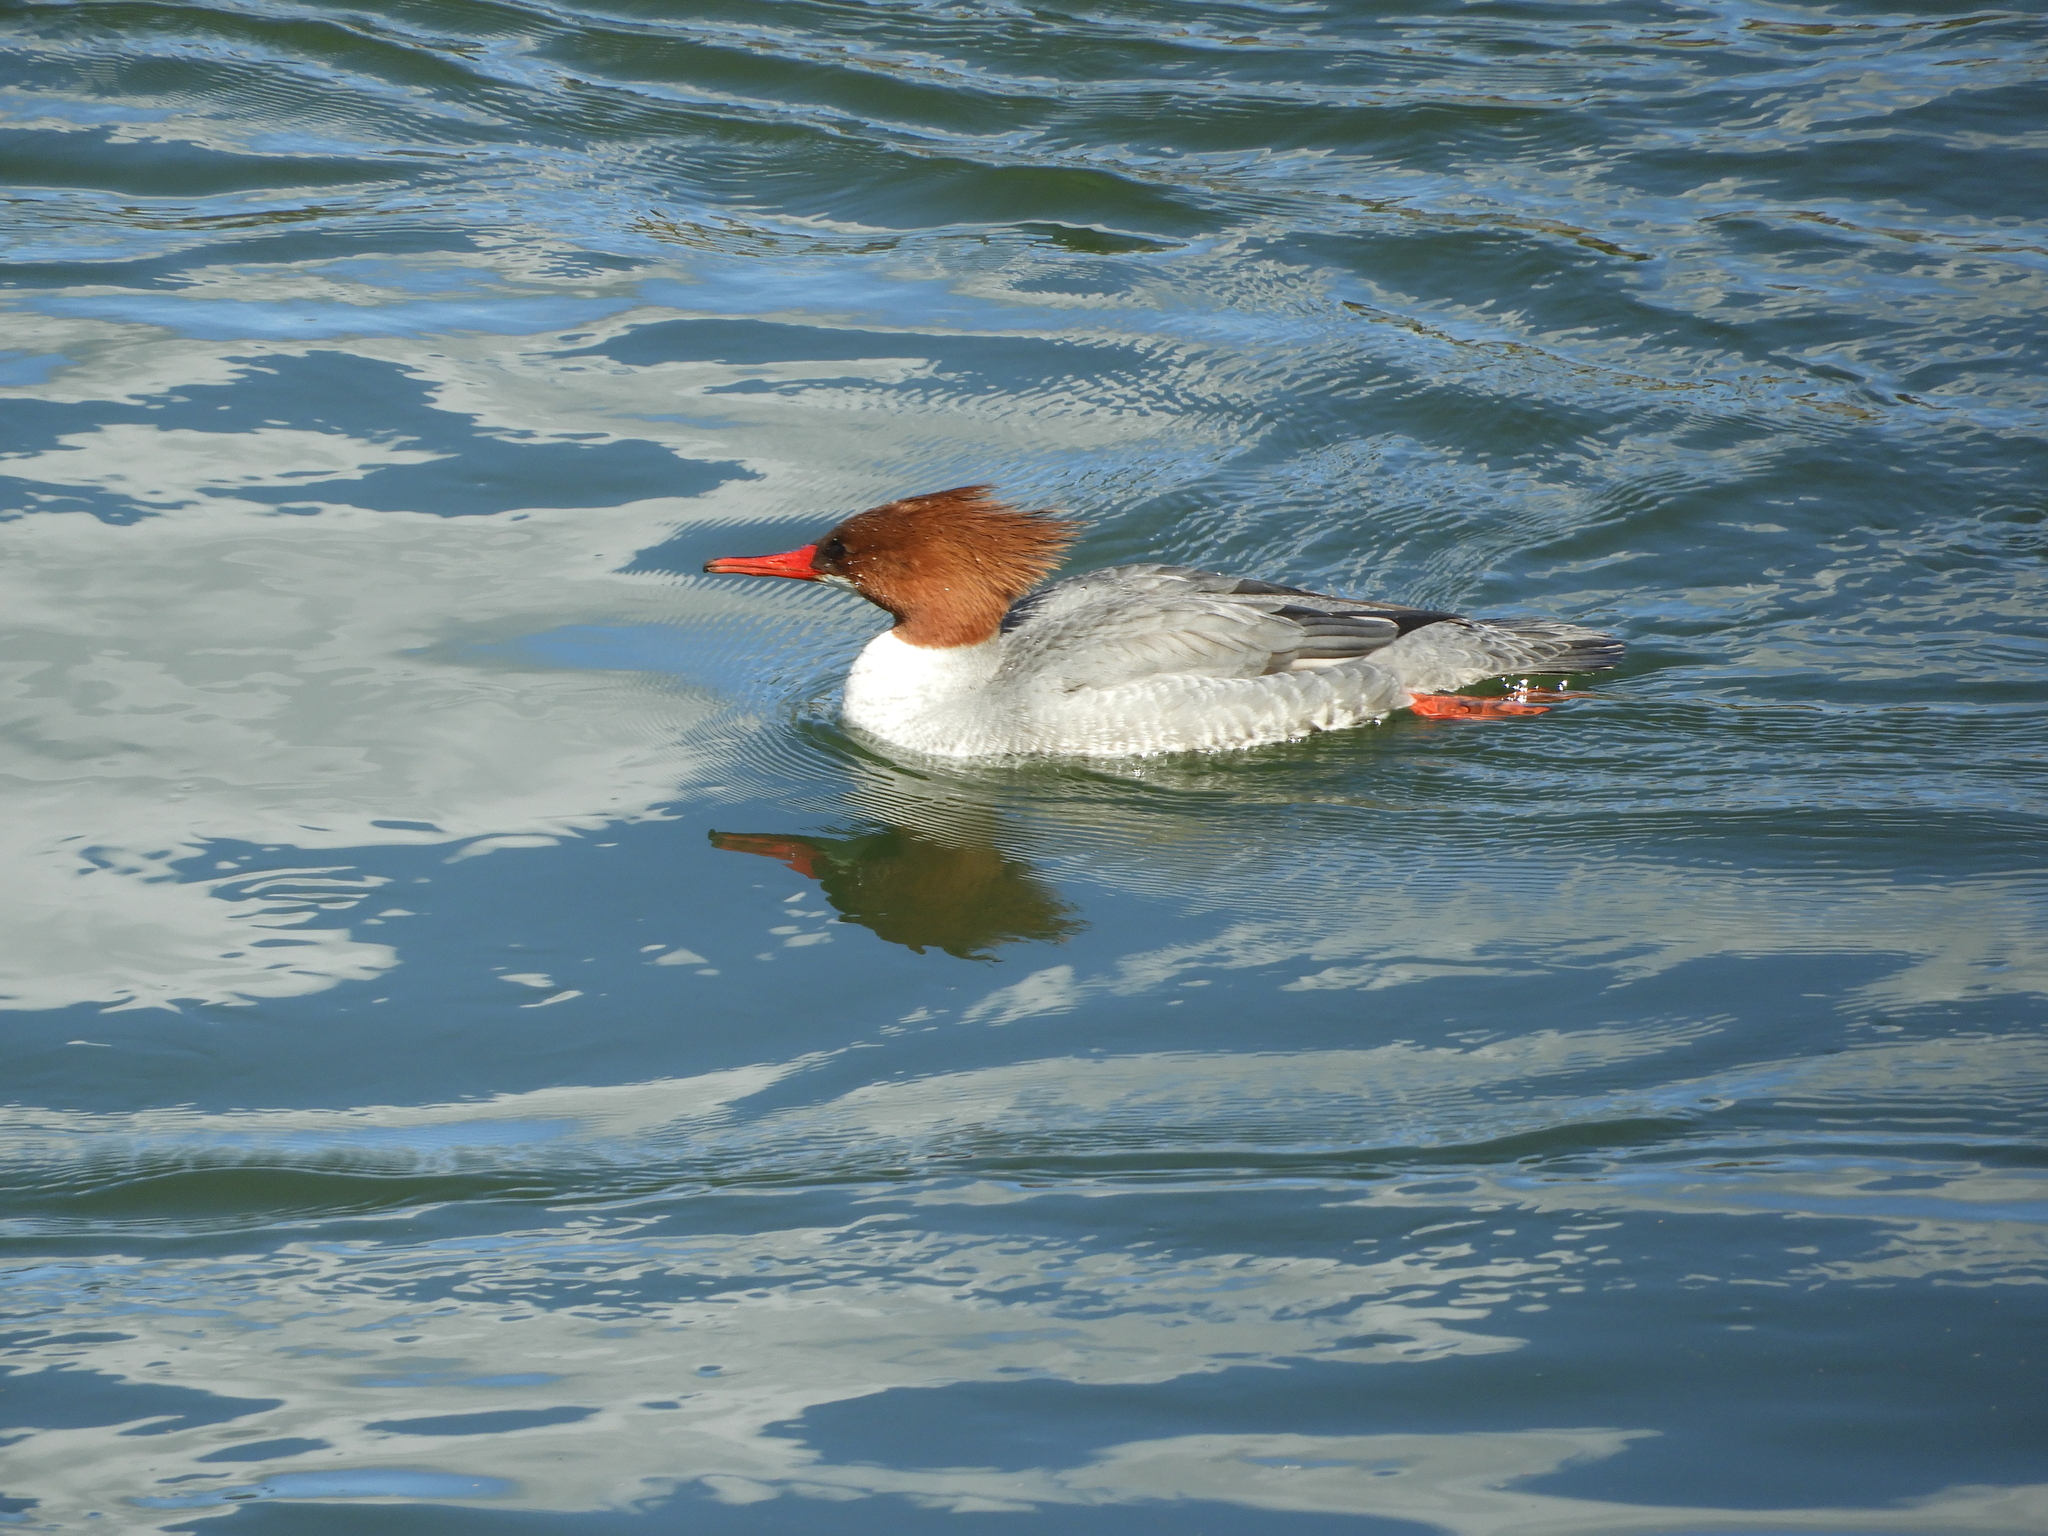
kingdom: Animalia
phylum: Chordata
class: Aves
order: Anseriformes
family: Anatidae
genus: Mergus
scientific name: Mergus merganser
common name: Common merganser
